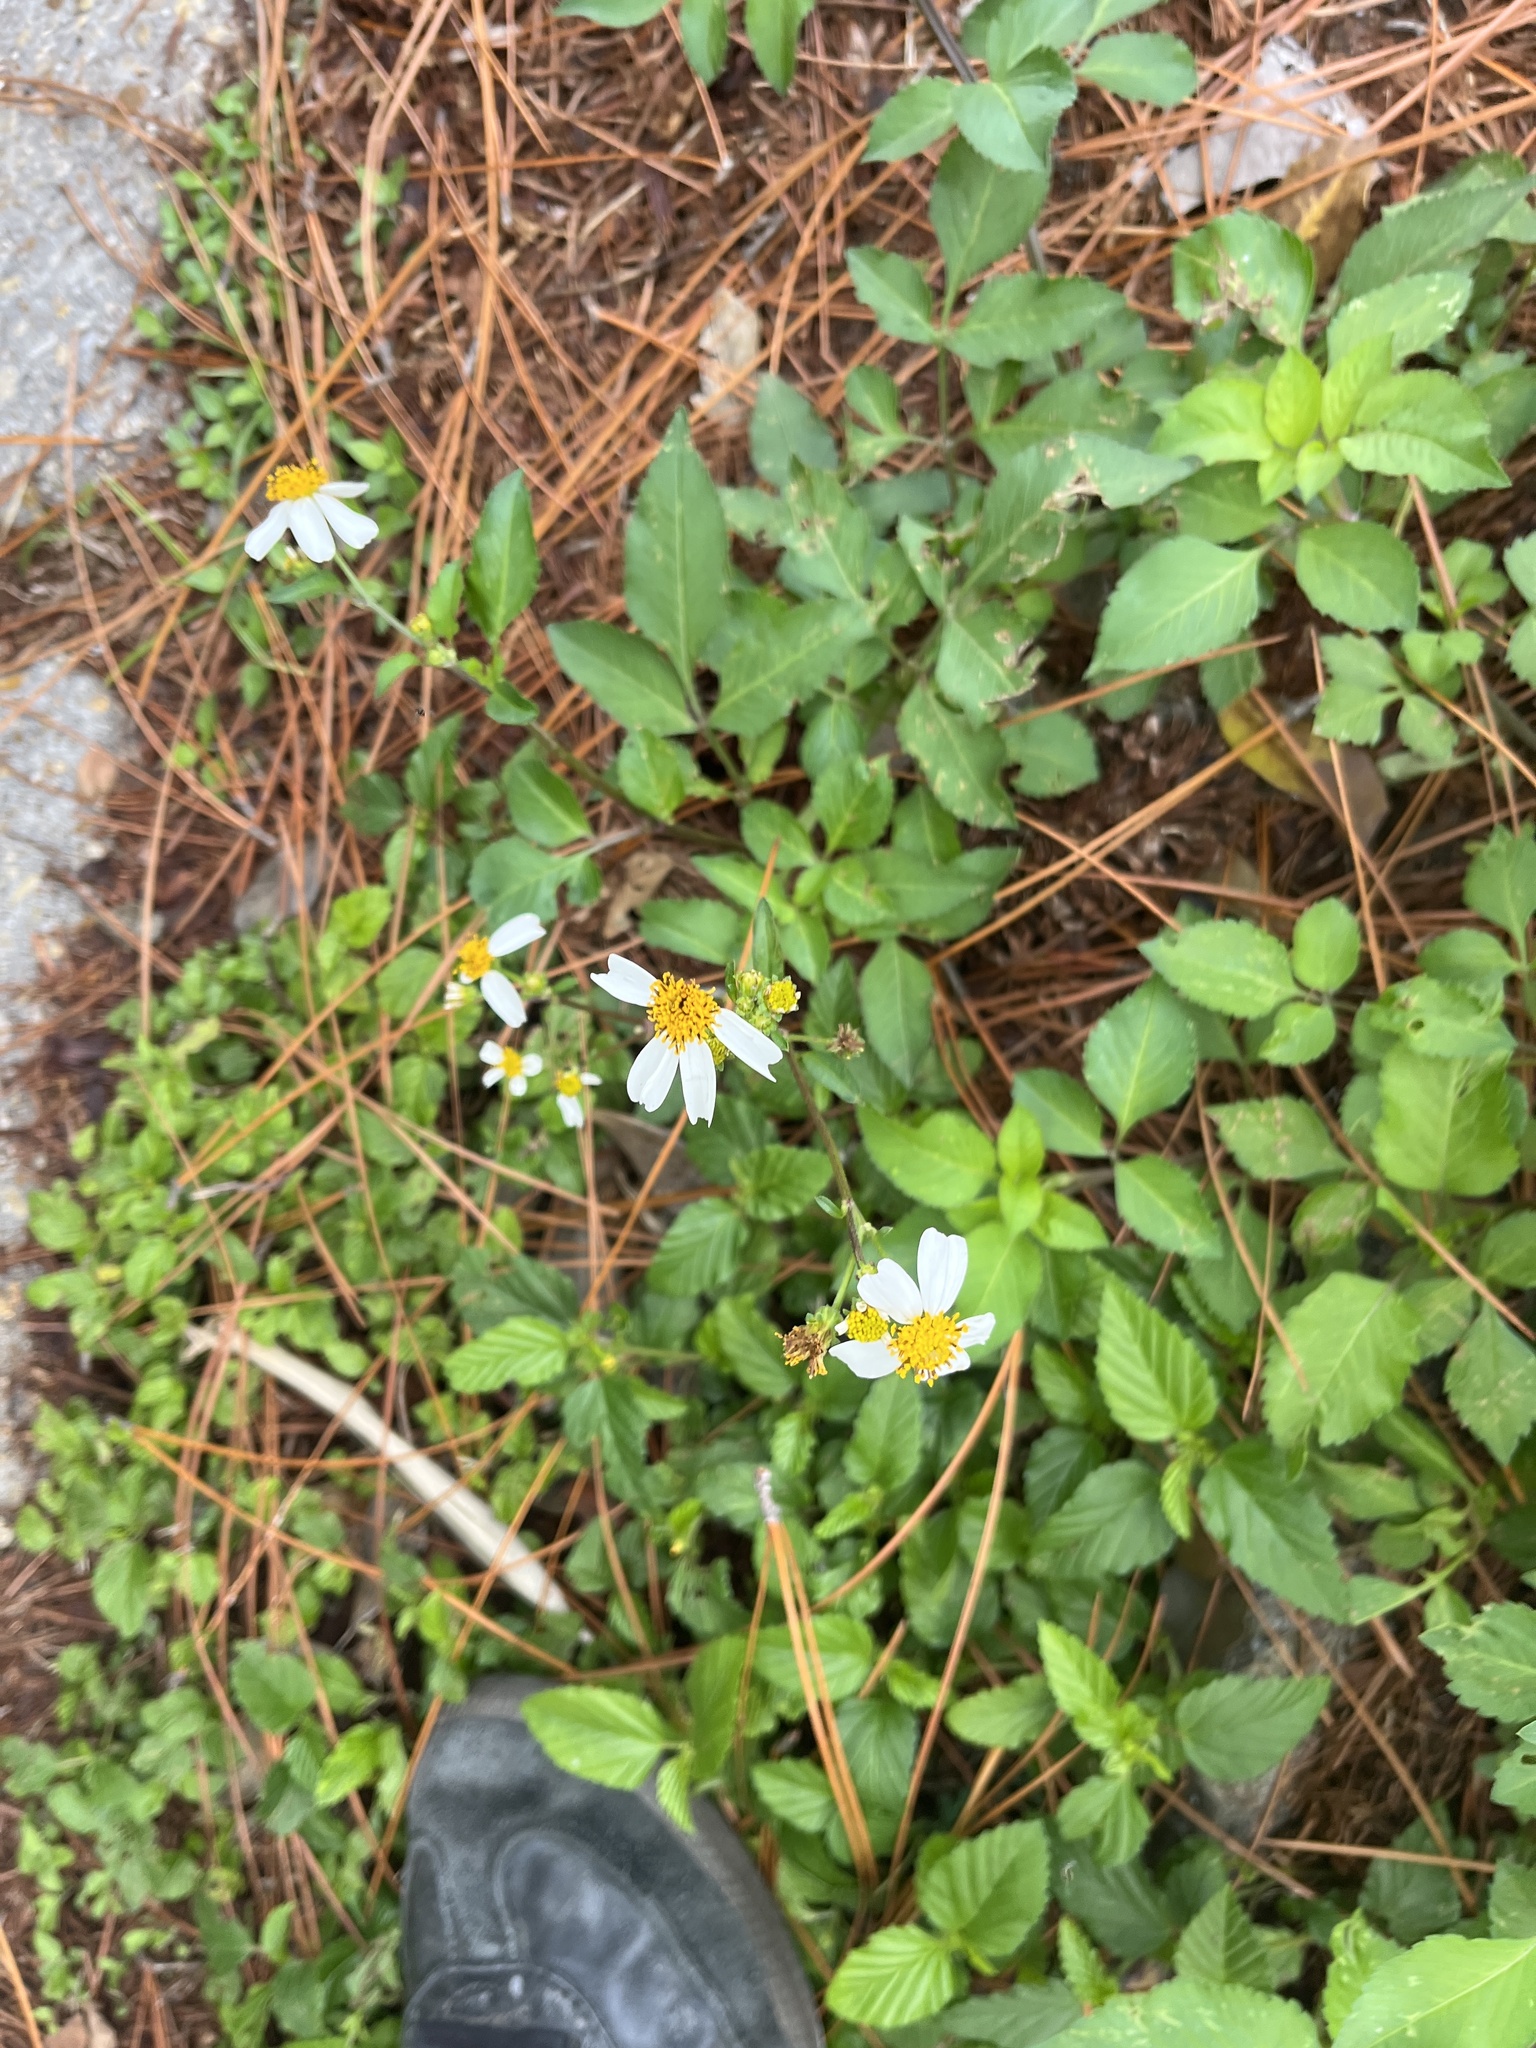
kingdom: Plantae
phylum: Tracheophyta
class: Magnoliopsida
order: Asterales
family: Asteraceae
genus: Bidens
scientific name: Bidens alba
